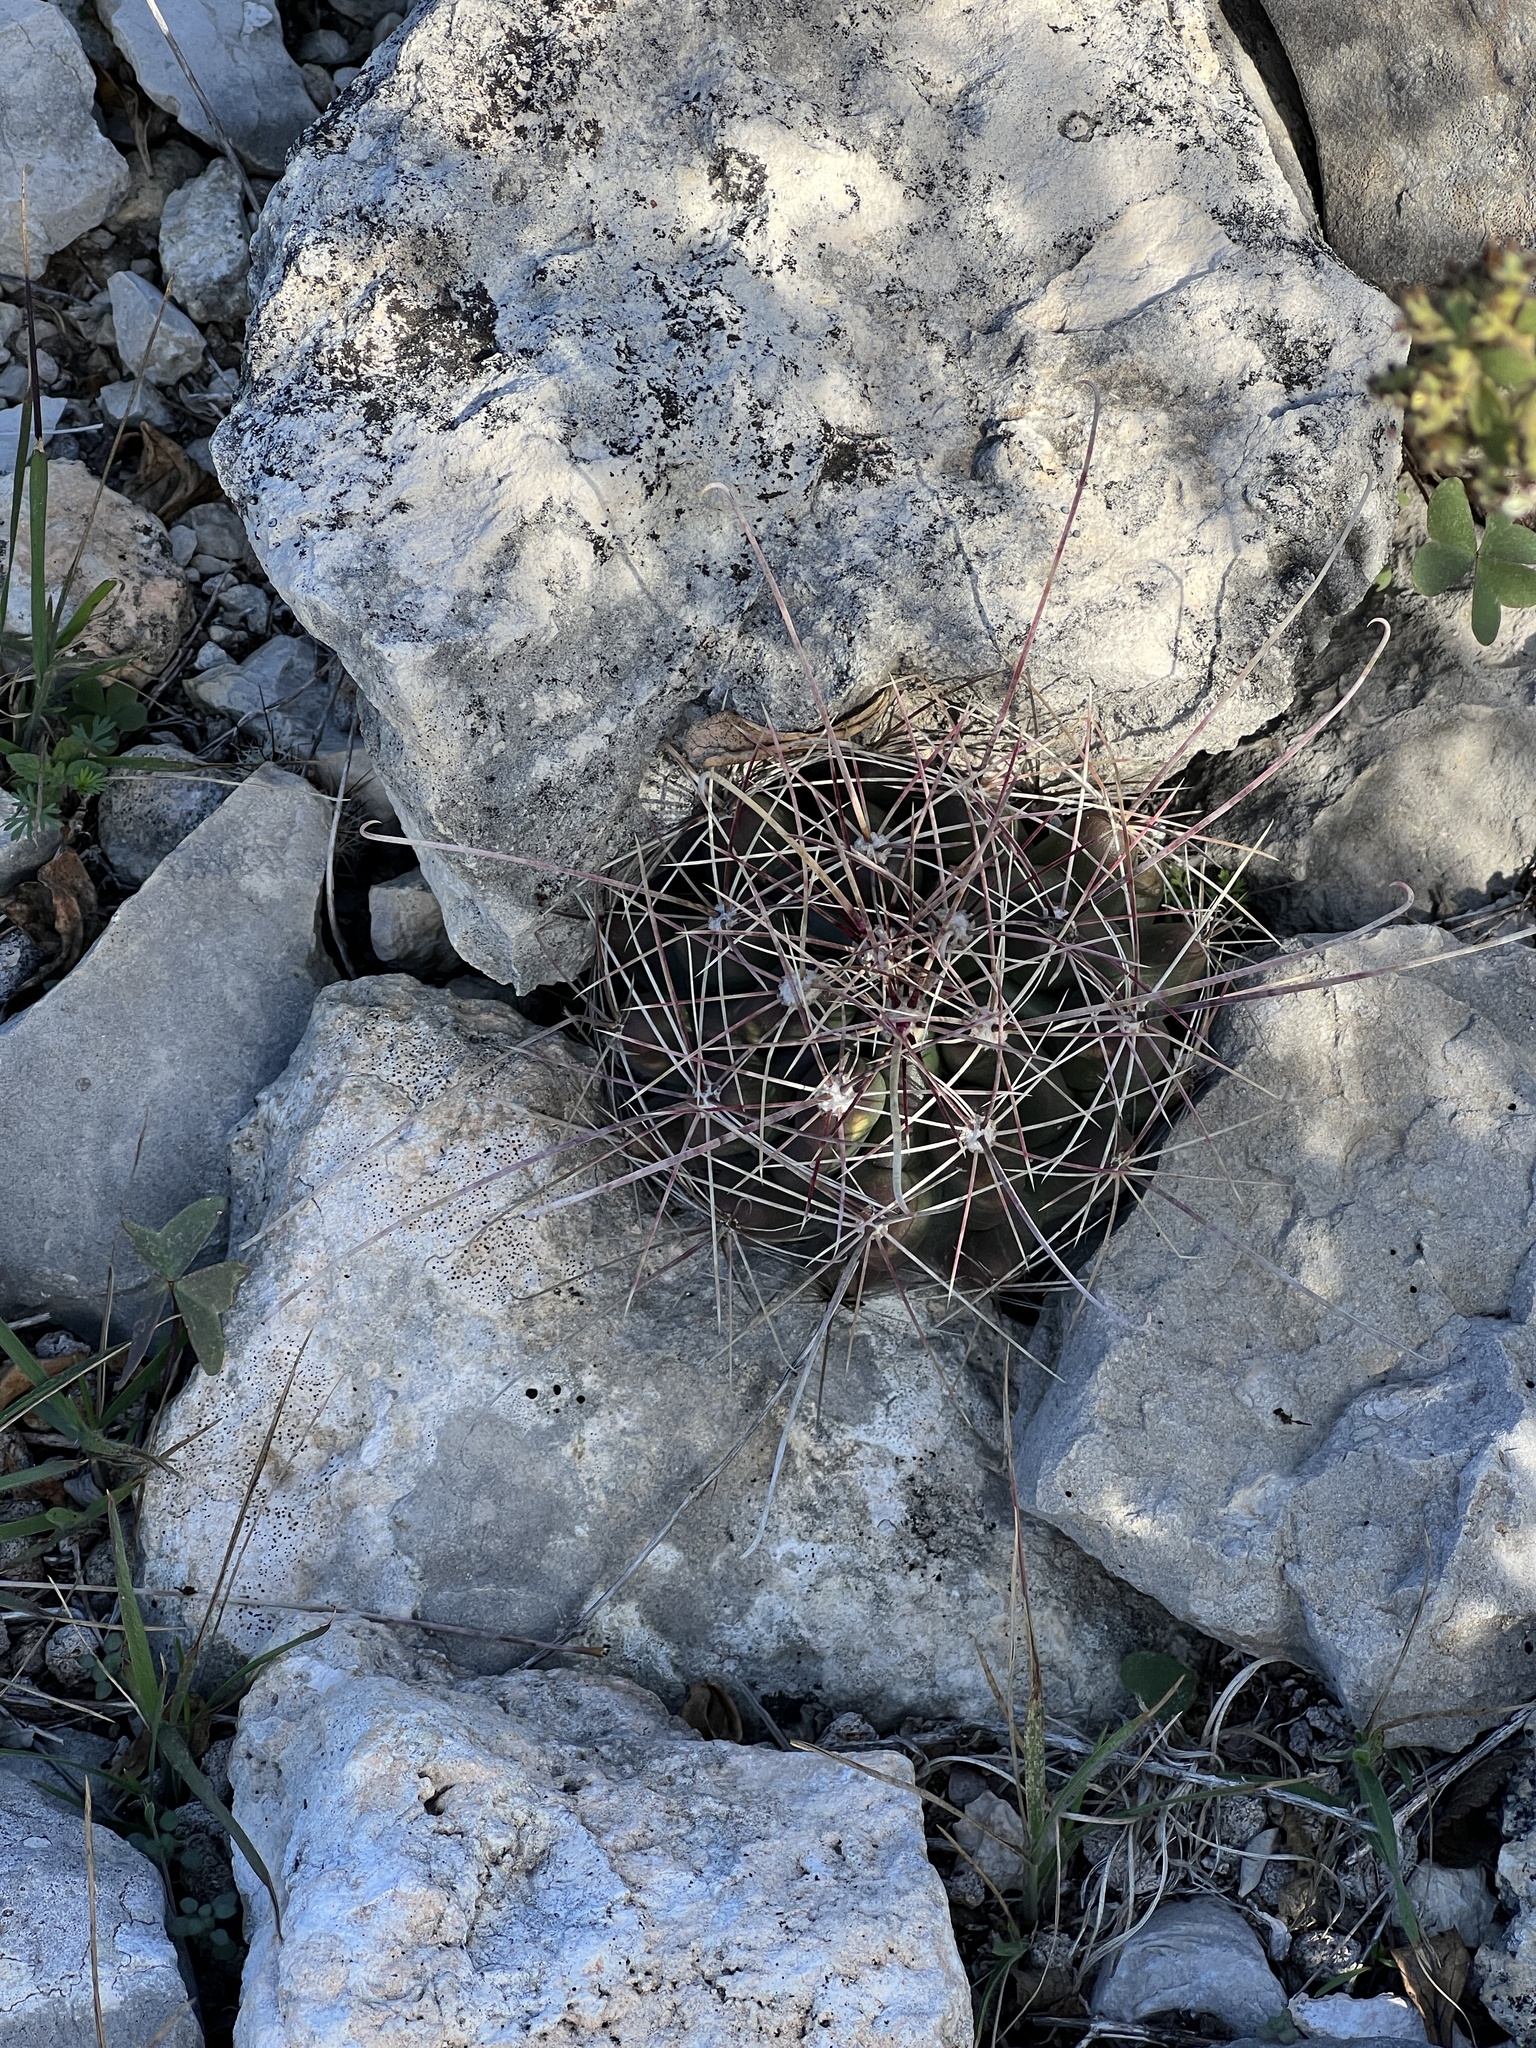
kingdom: Plantae
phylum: Tracheophyta
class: Magnoliopsida
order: Caryophyllales
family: Cactaceae
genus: Bisnaga
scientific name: Bisnaga hamatacantha
